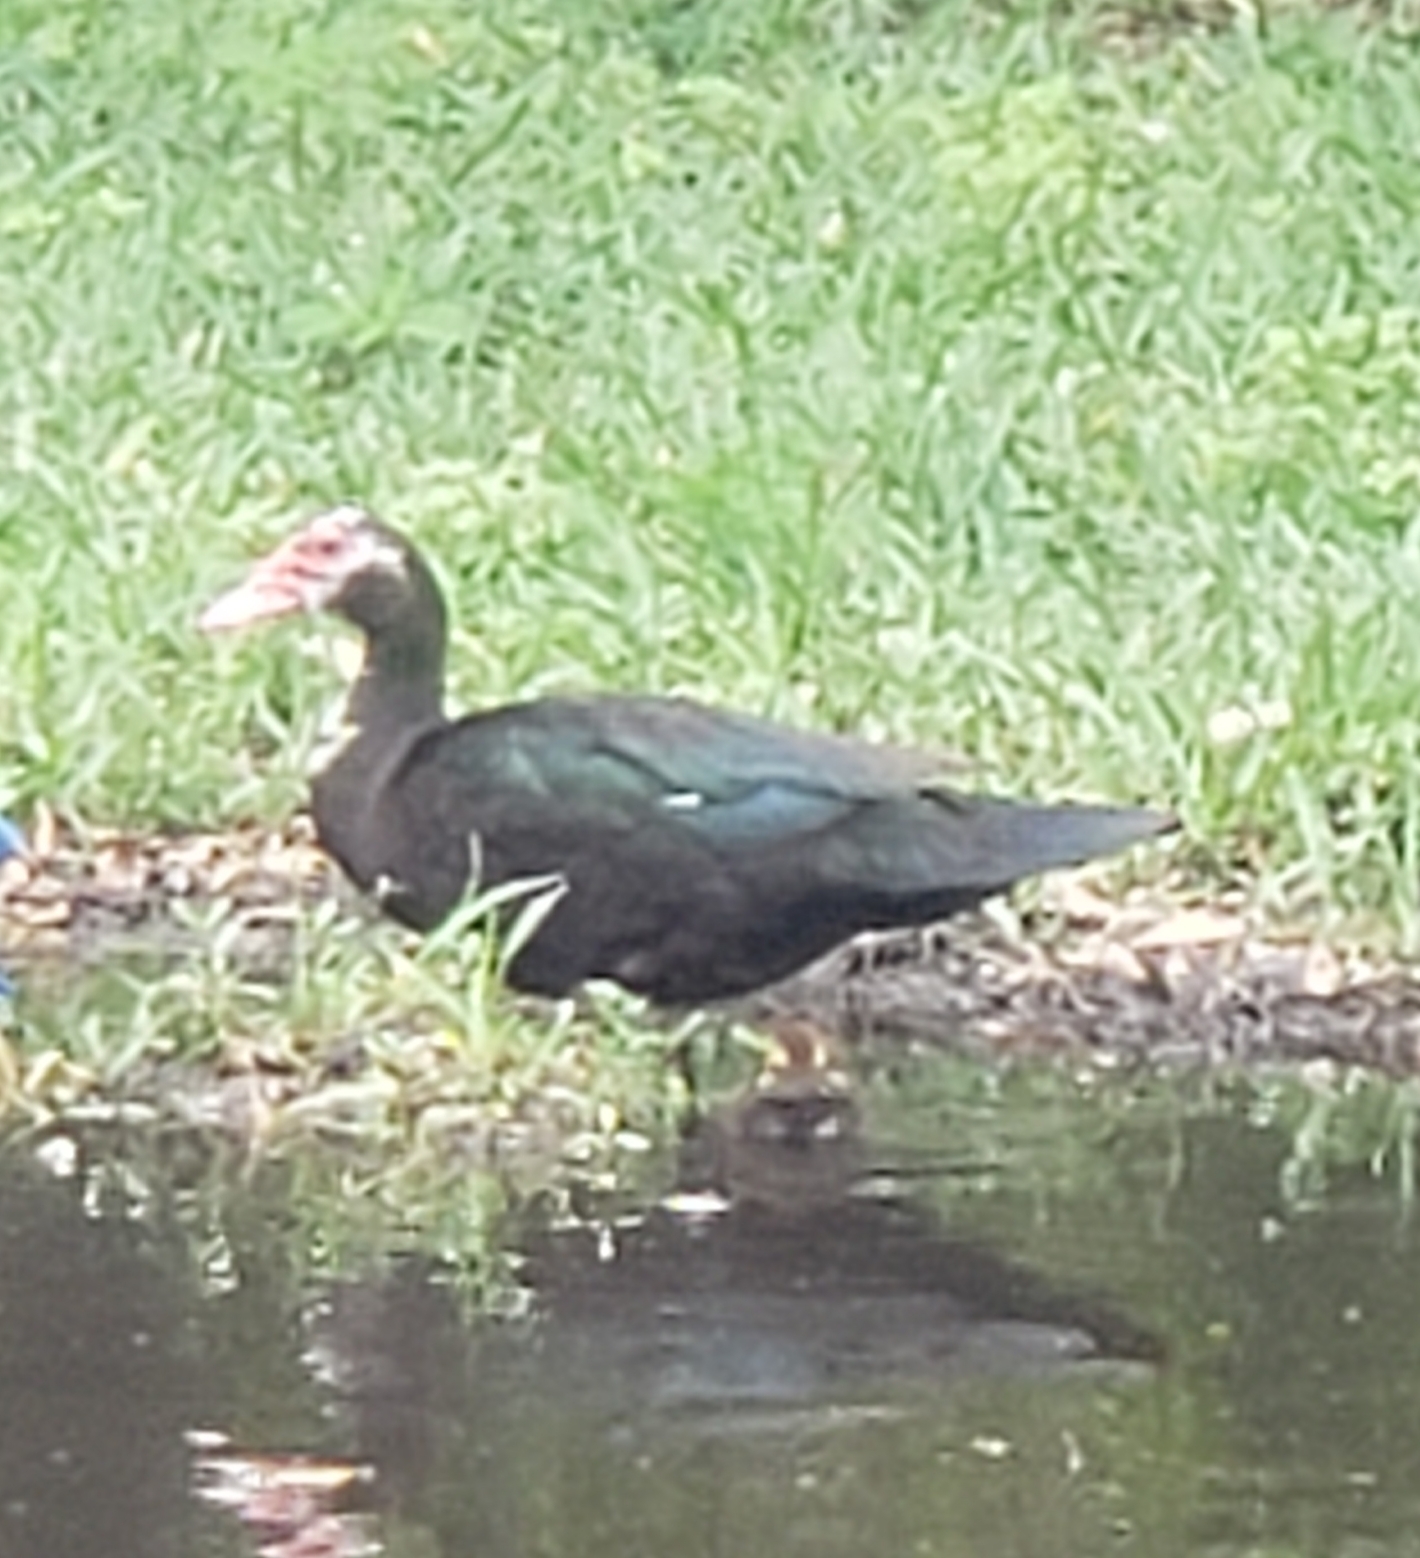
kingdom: Animalia
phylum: Chordata
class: Aves
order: Anseriformes
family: Anatidae
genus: Cairina
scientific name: Cairina moschata
